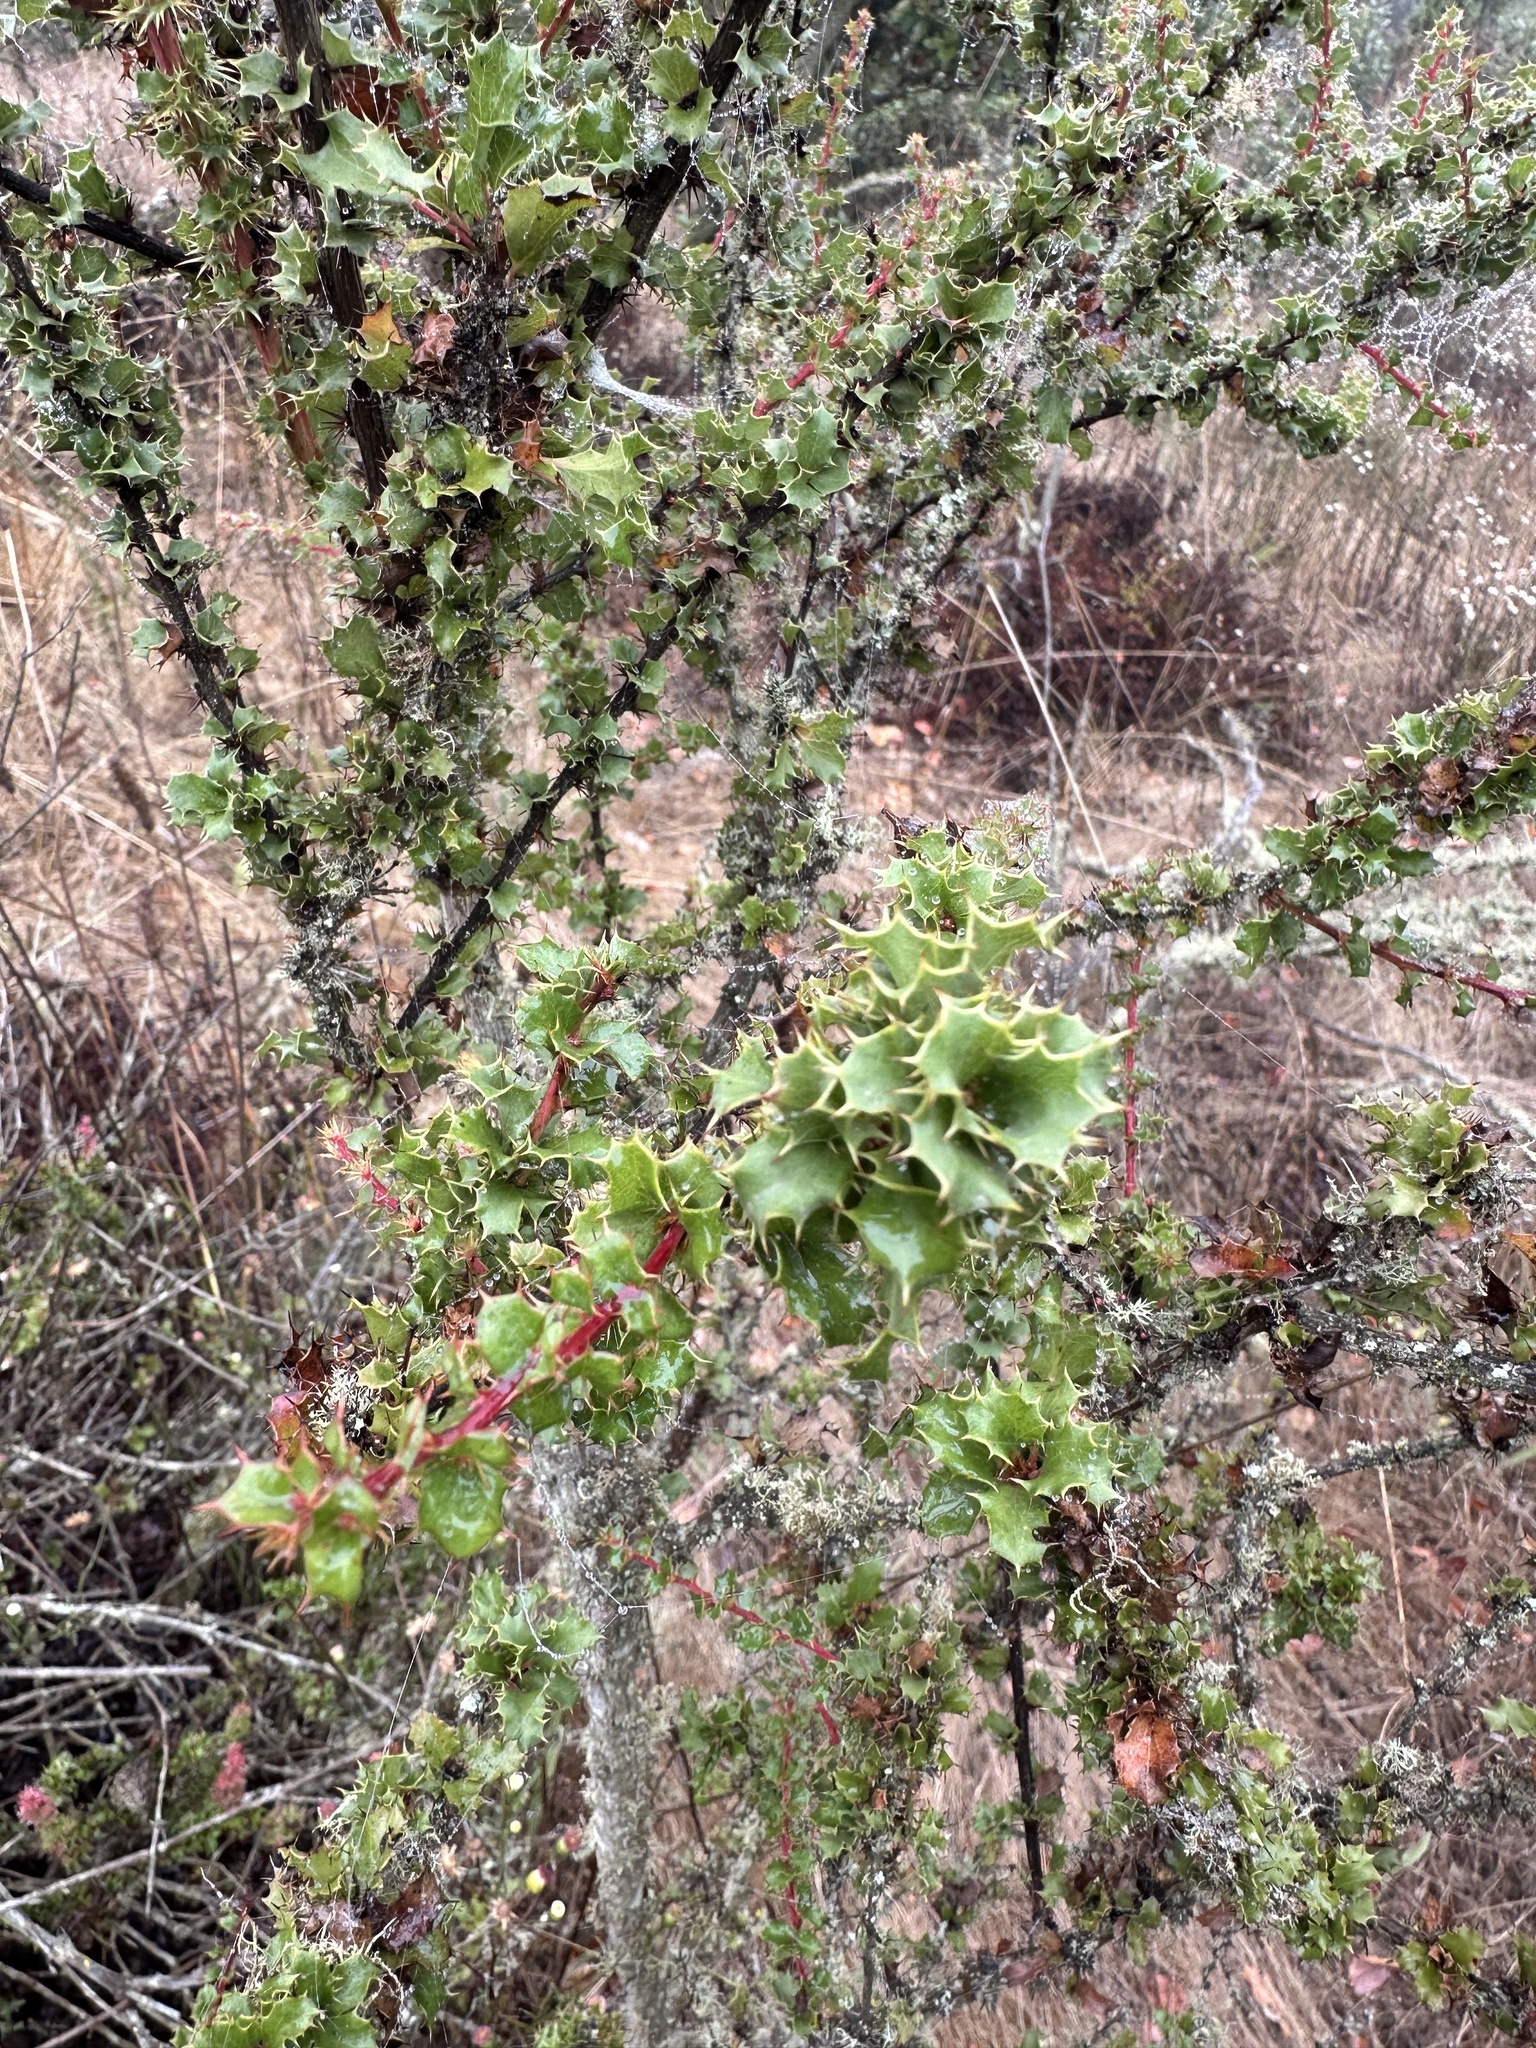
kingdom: Plantae
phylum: Tracheophyta
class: Magnoliopsida
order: Ranunculales
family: Berberidaceae
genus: Berberis
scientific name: Berberis actinacantha
